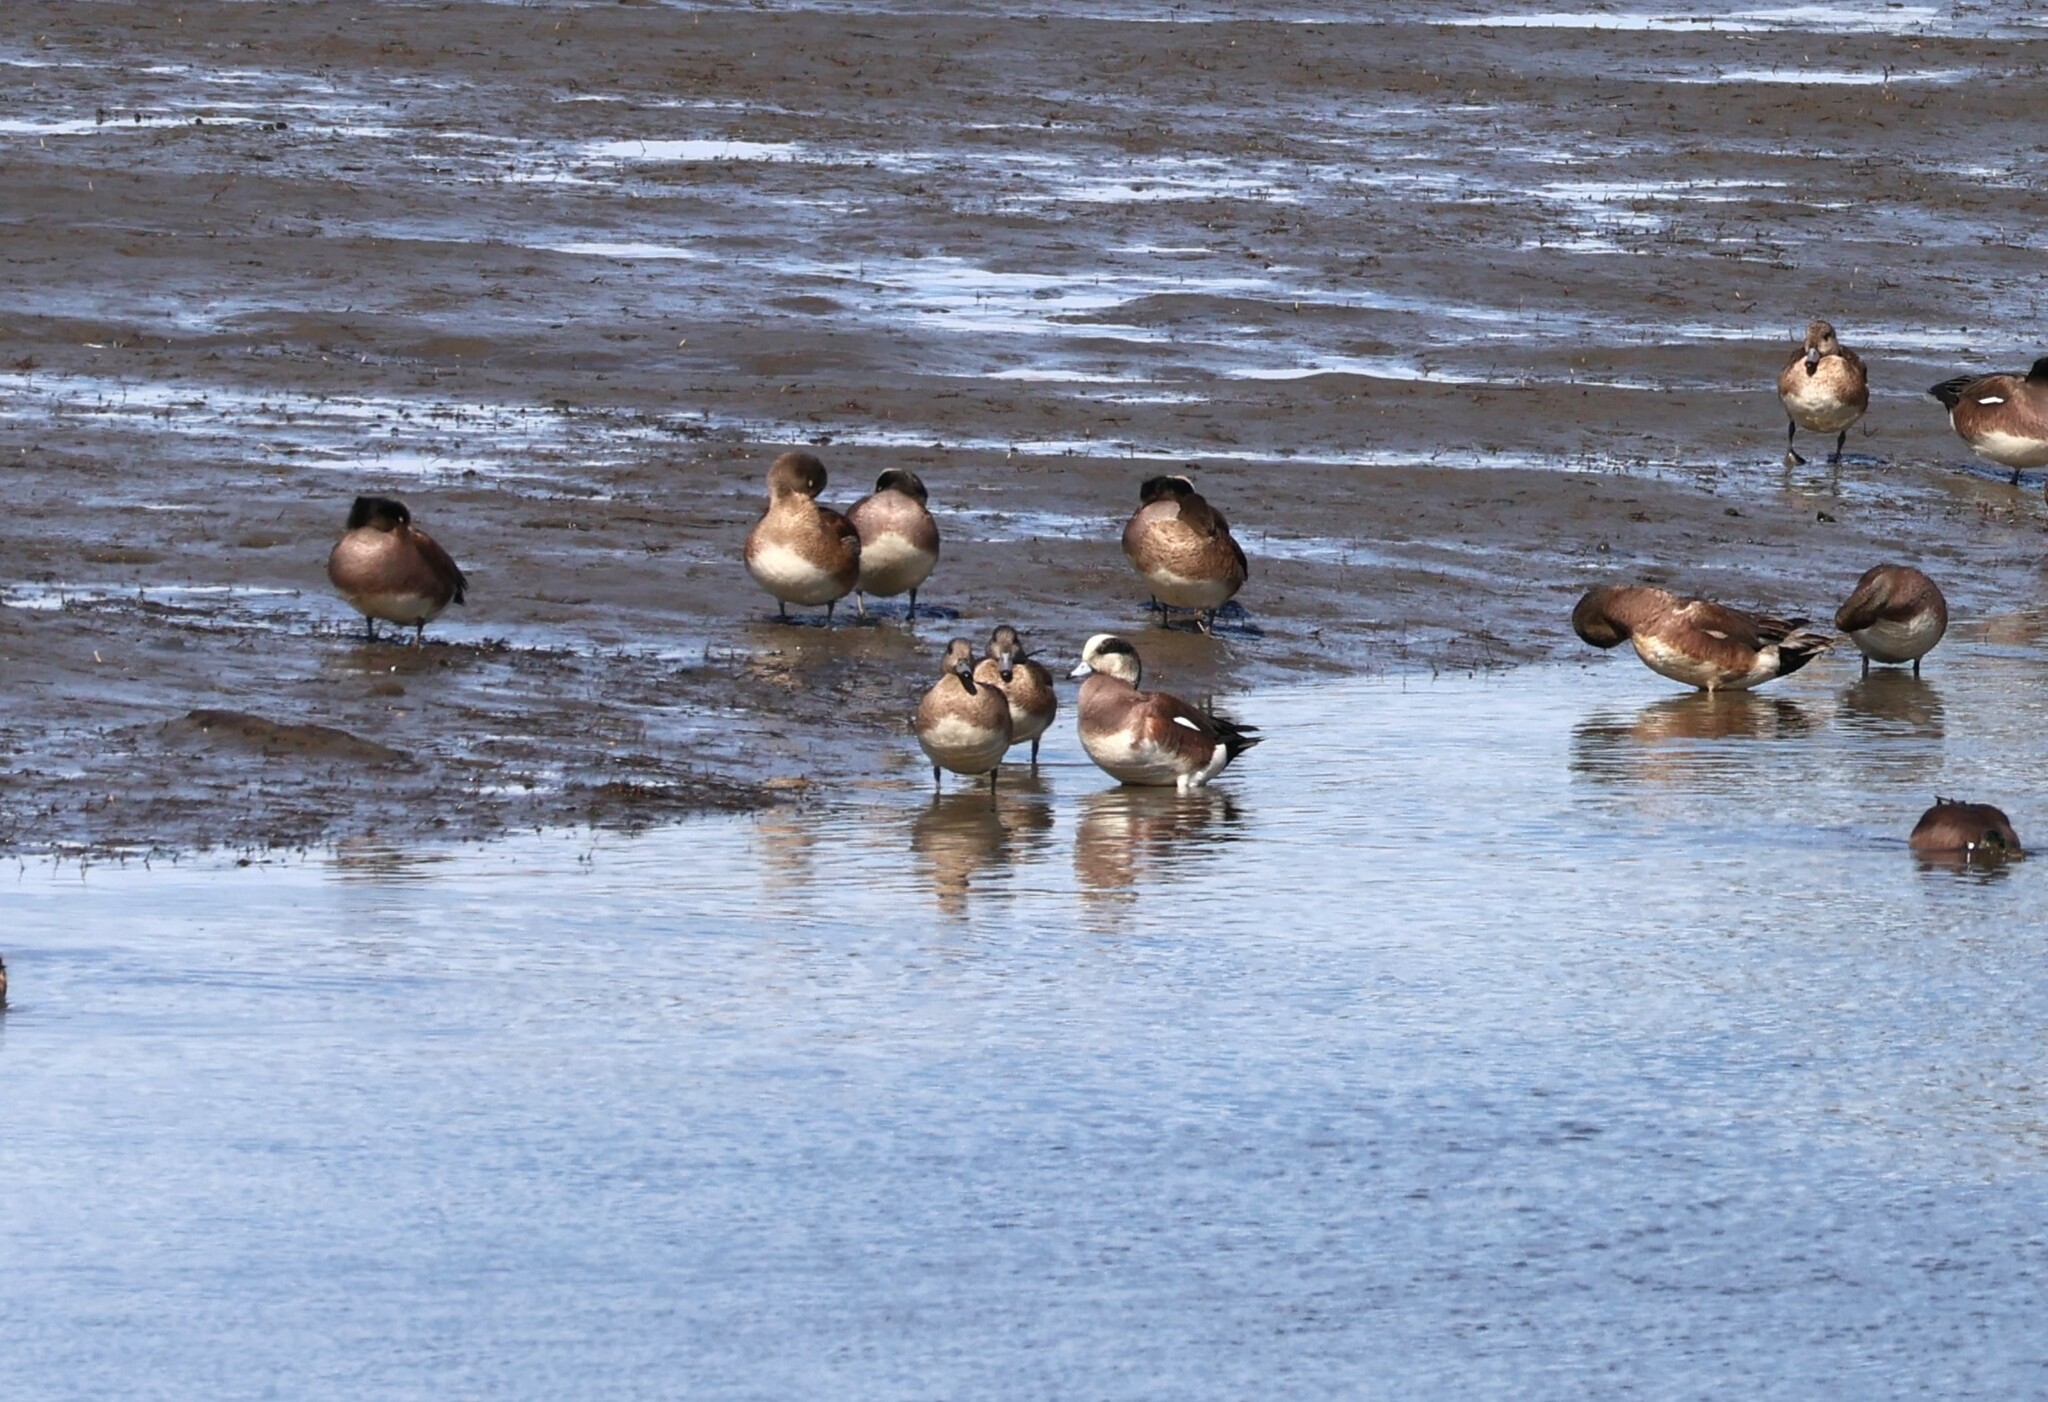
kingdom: Animalia
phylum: Chordata
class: Aves
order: Anseriformes
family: Anatidae
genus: Mareca
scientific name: Mareca americana
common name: American wigeon
